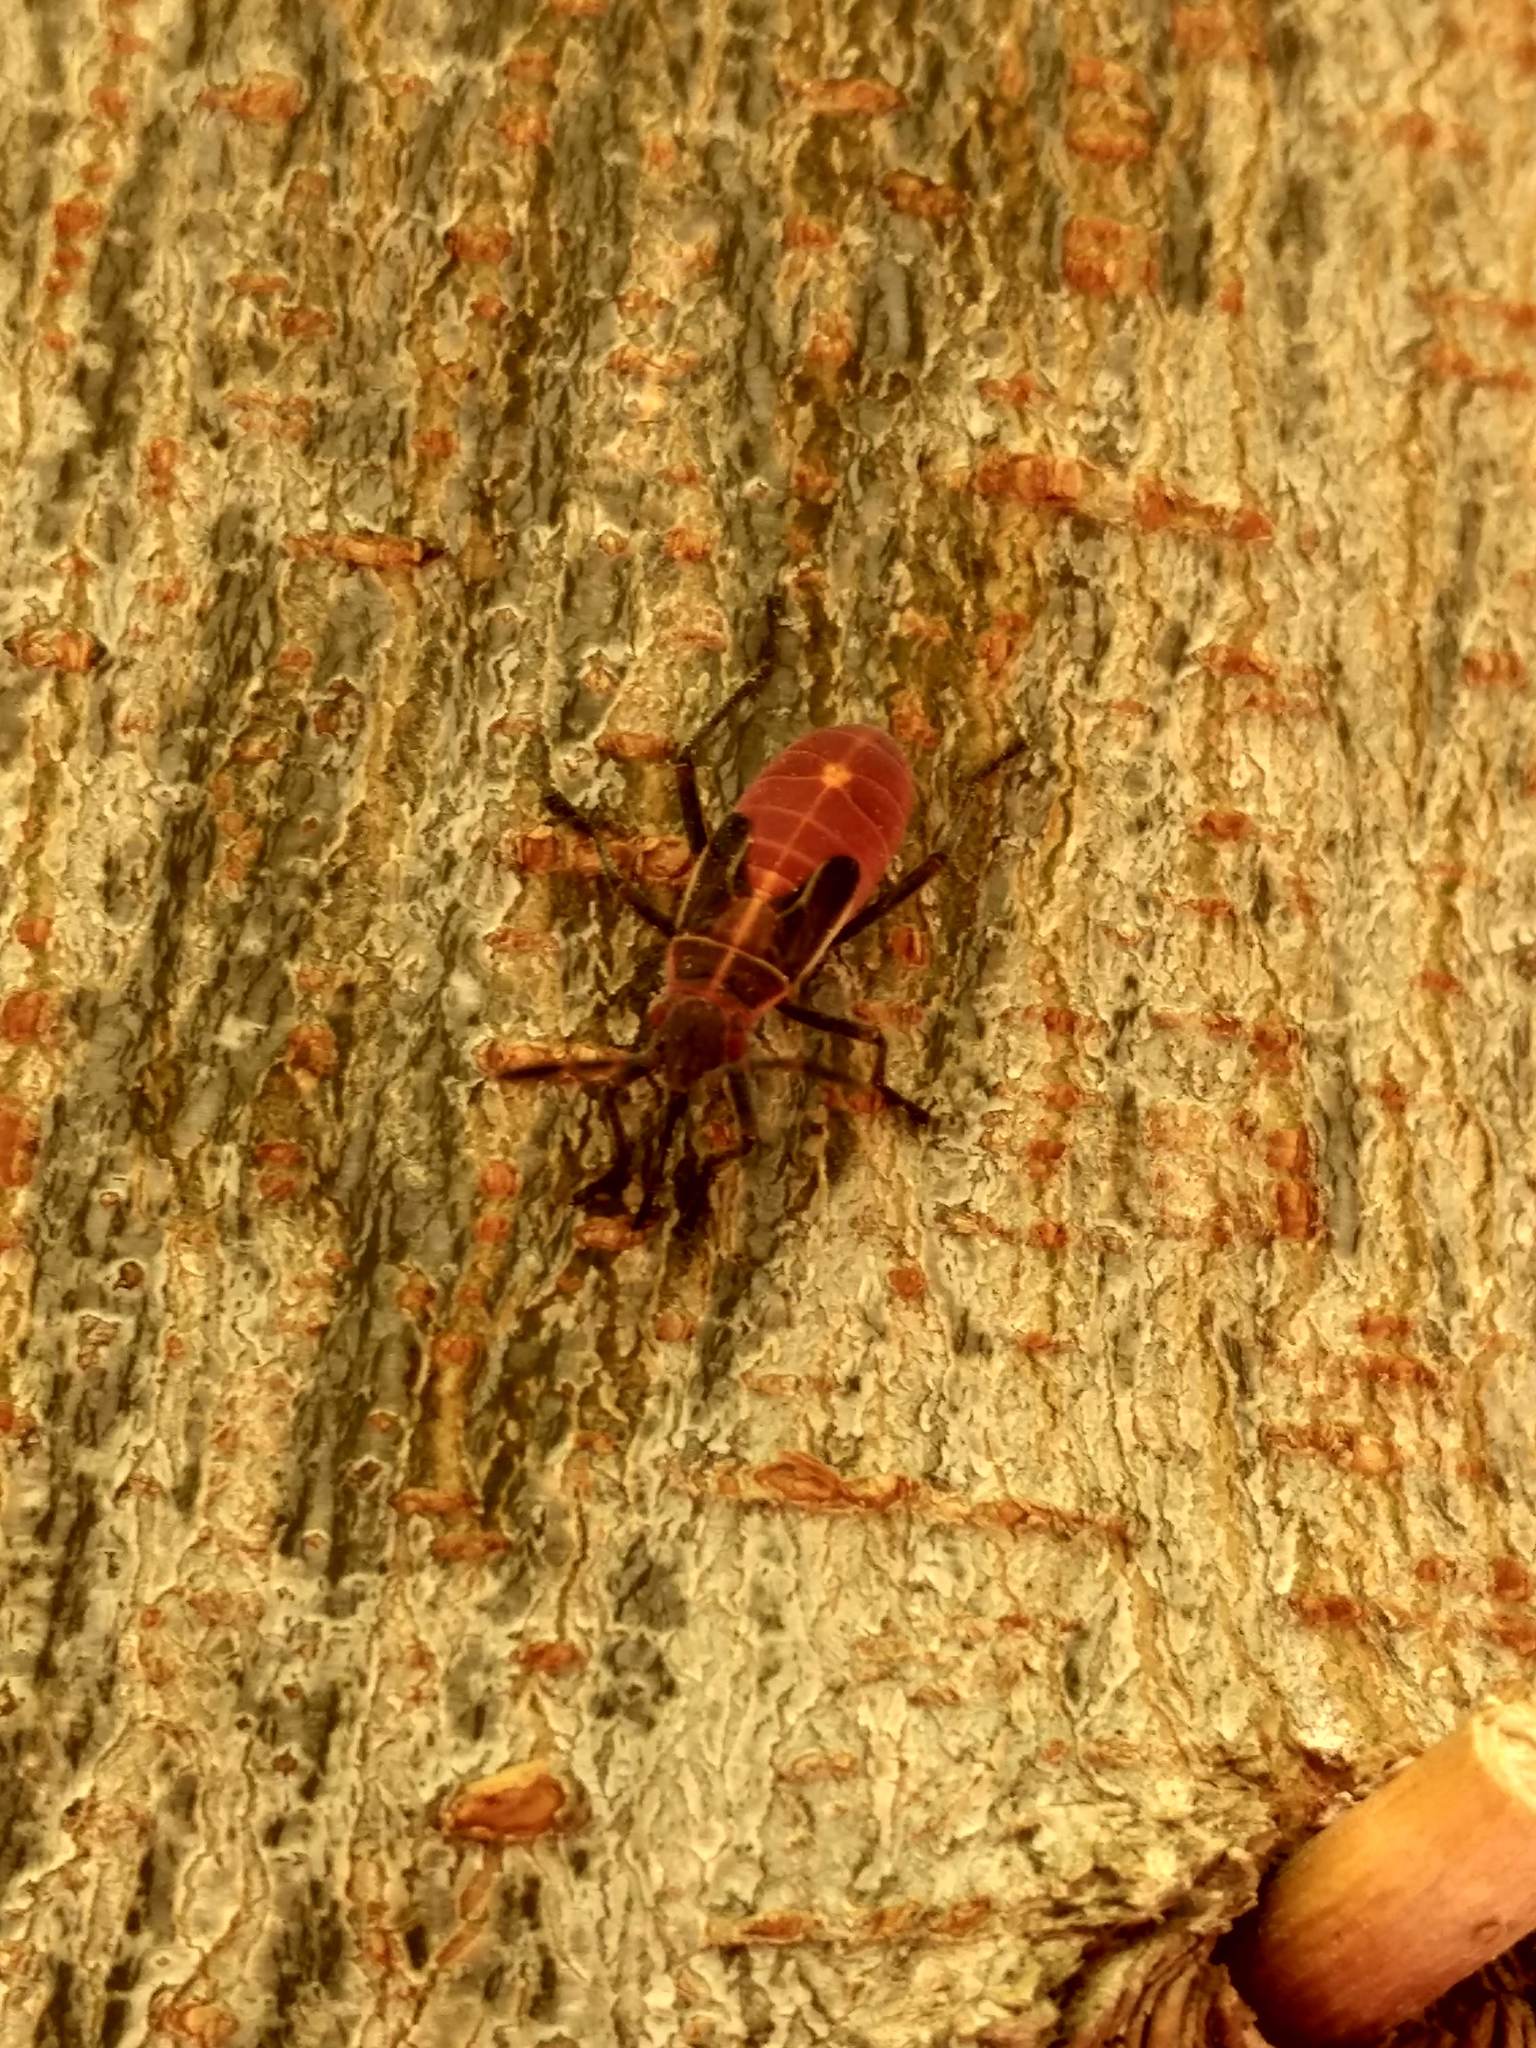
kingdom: Animalia
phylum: Arthropoda
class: Insecta
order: Hemiptera
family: Rhopalidae
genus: Boisea
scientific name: Boisea rubrolineata
